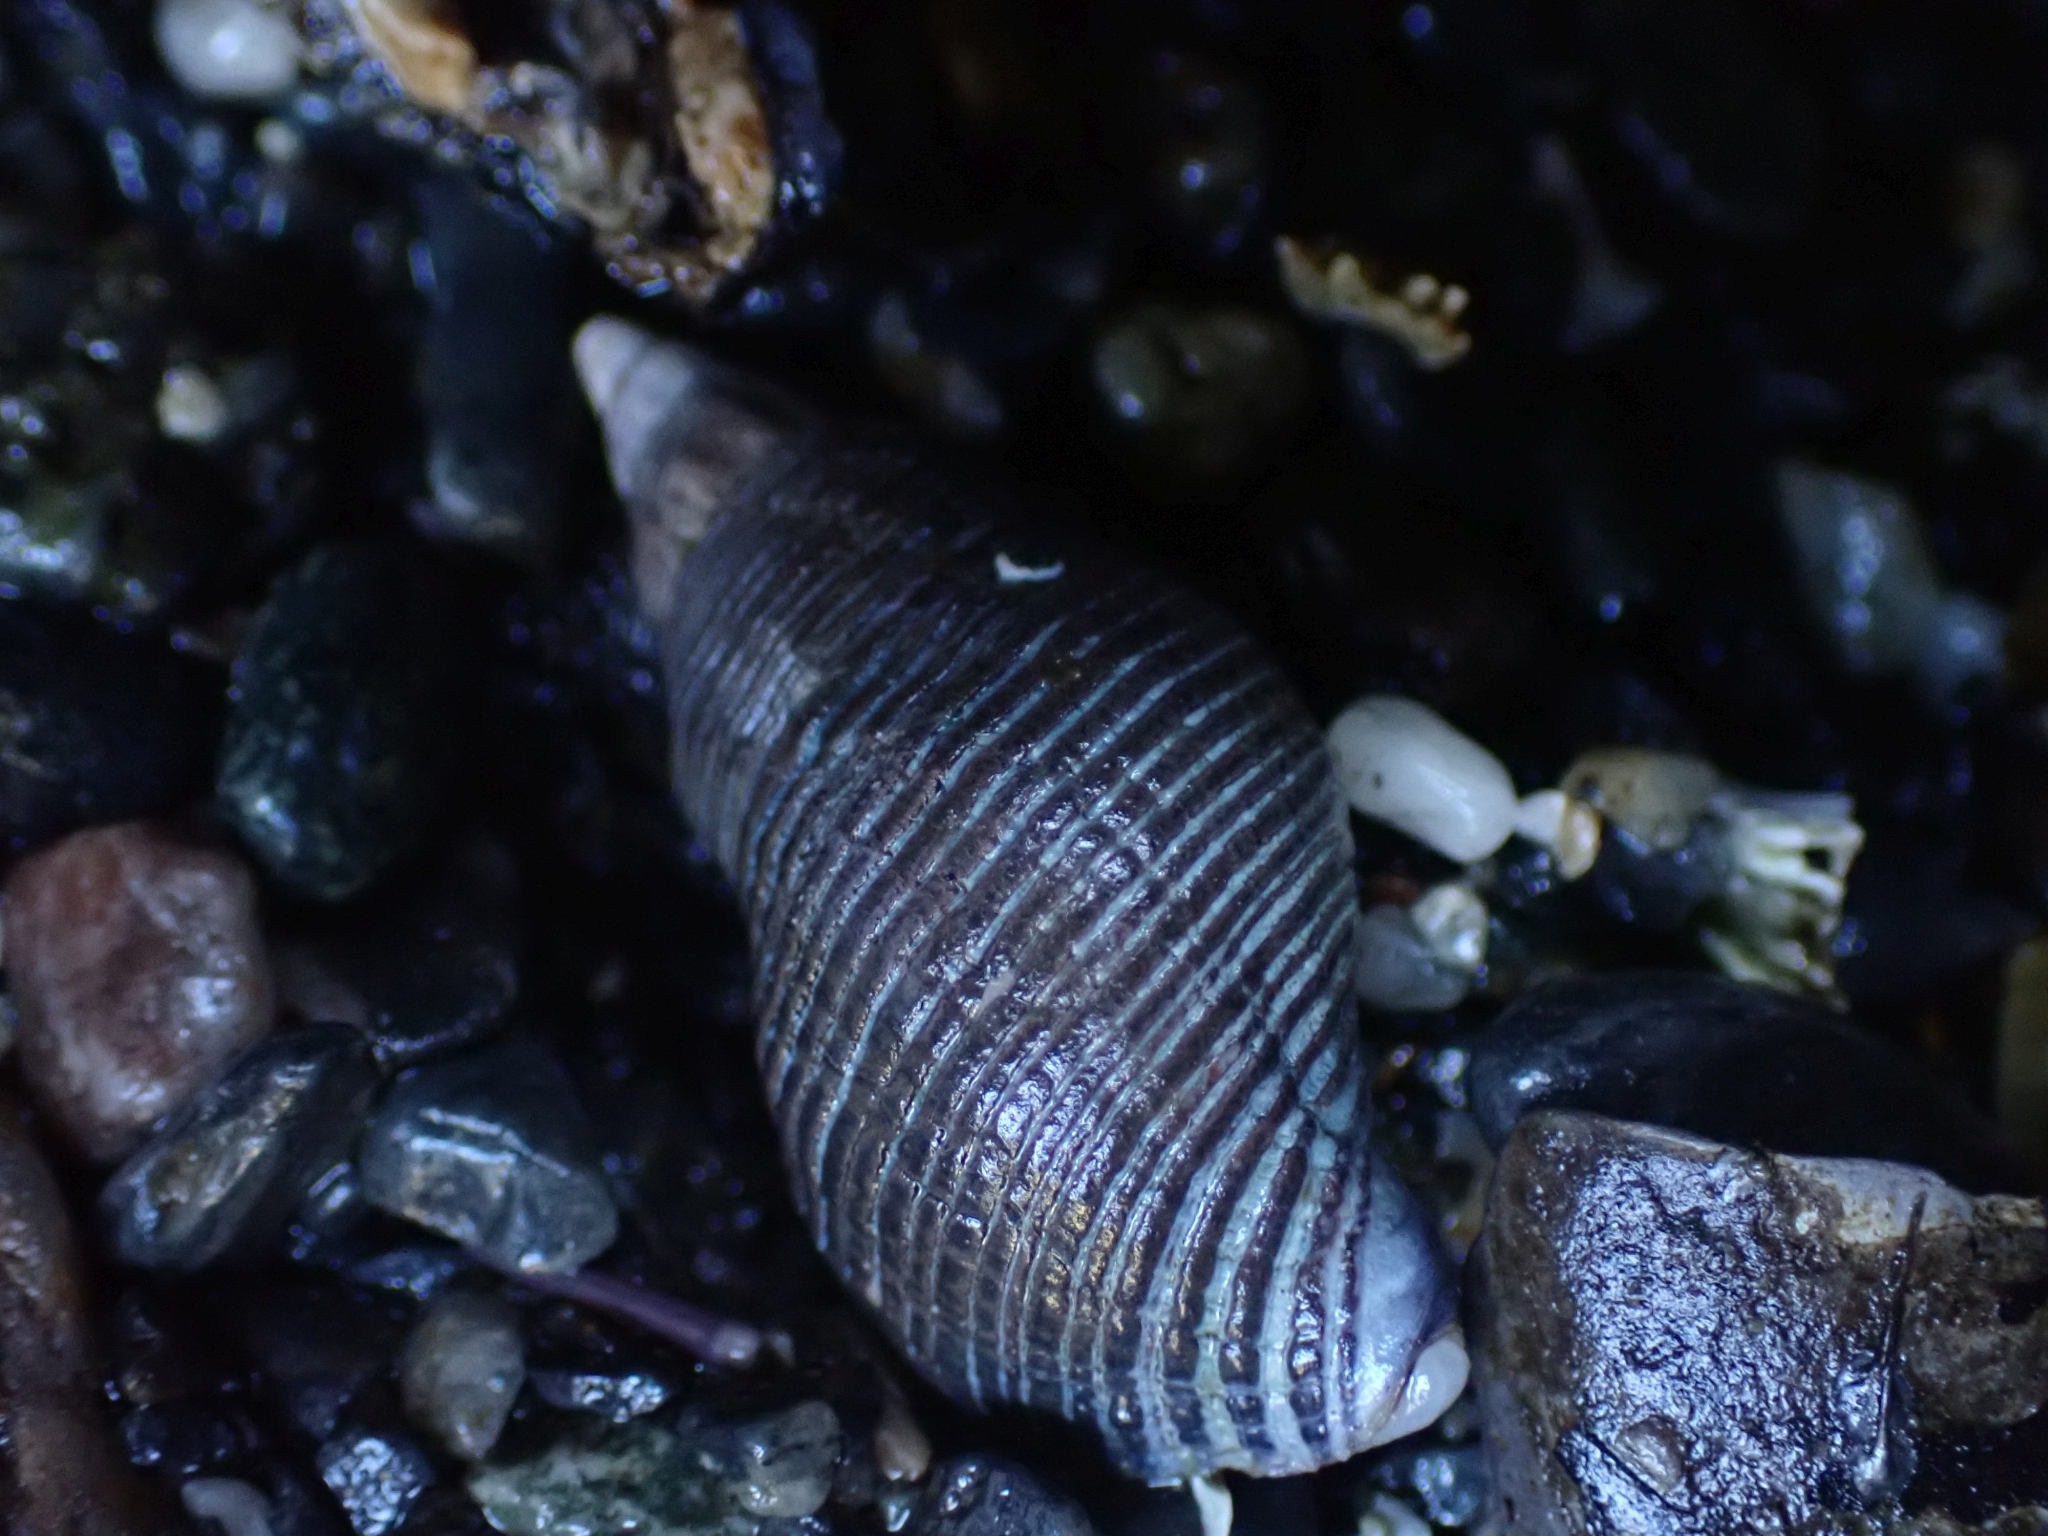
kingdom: Animalia
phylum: Mollusca
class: Gastropoda
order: Neogastropoda
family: Tudiclidae
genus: Lirabuccinum
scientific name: Lirabuccinum dirum
